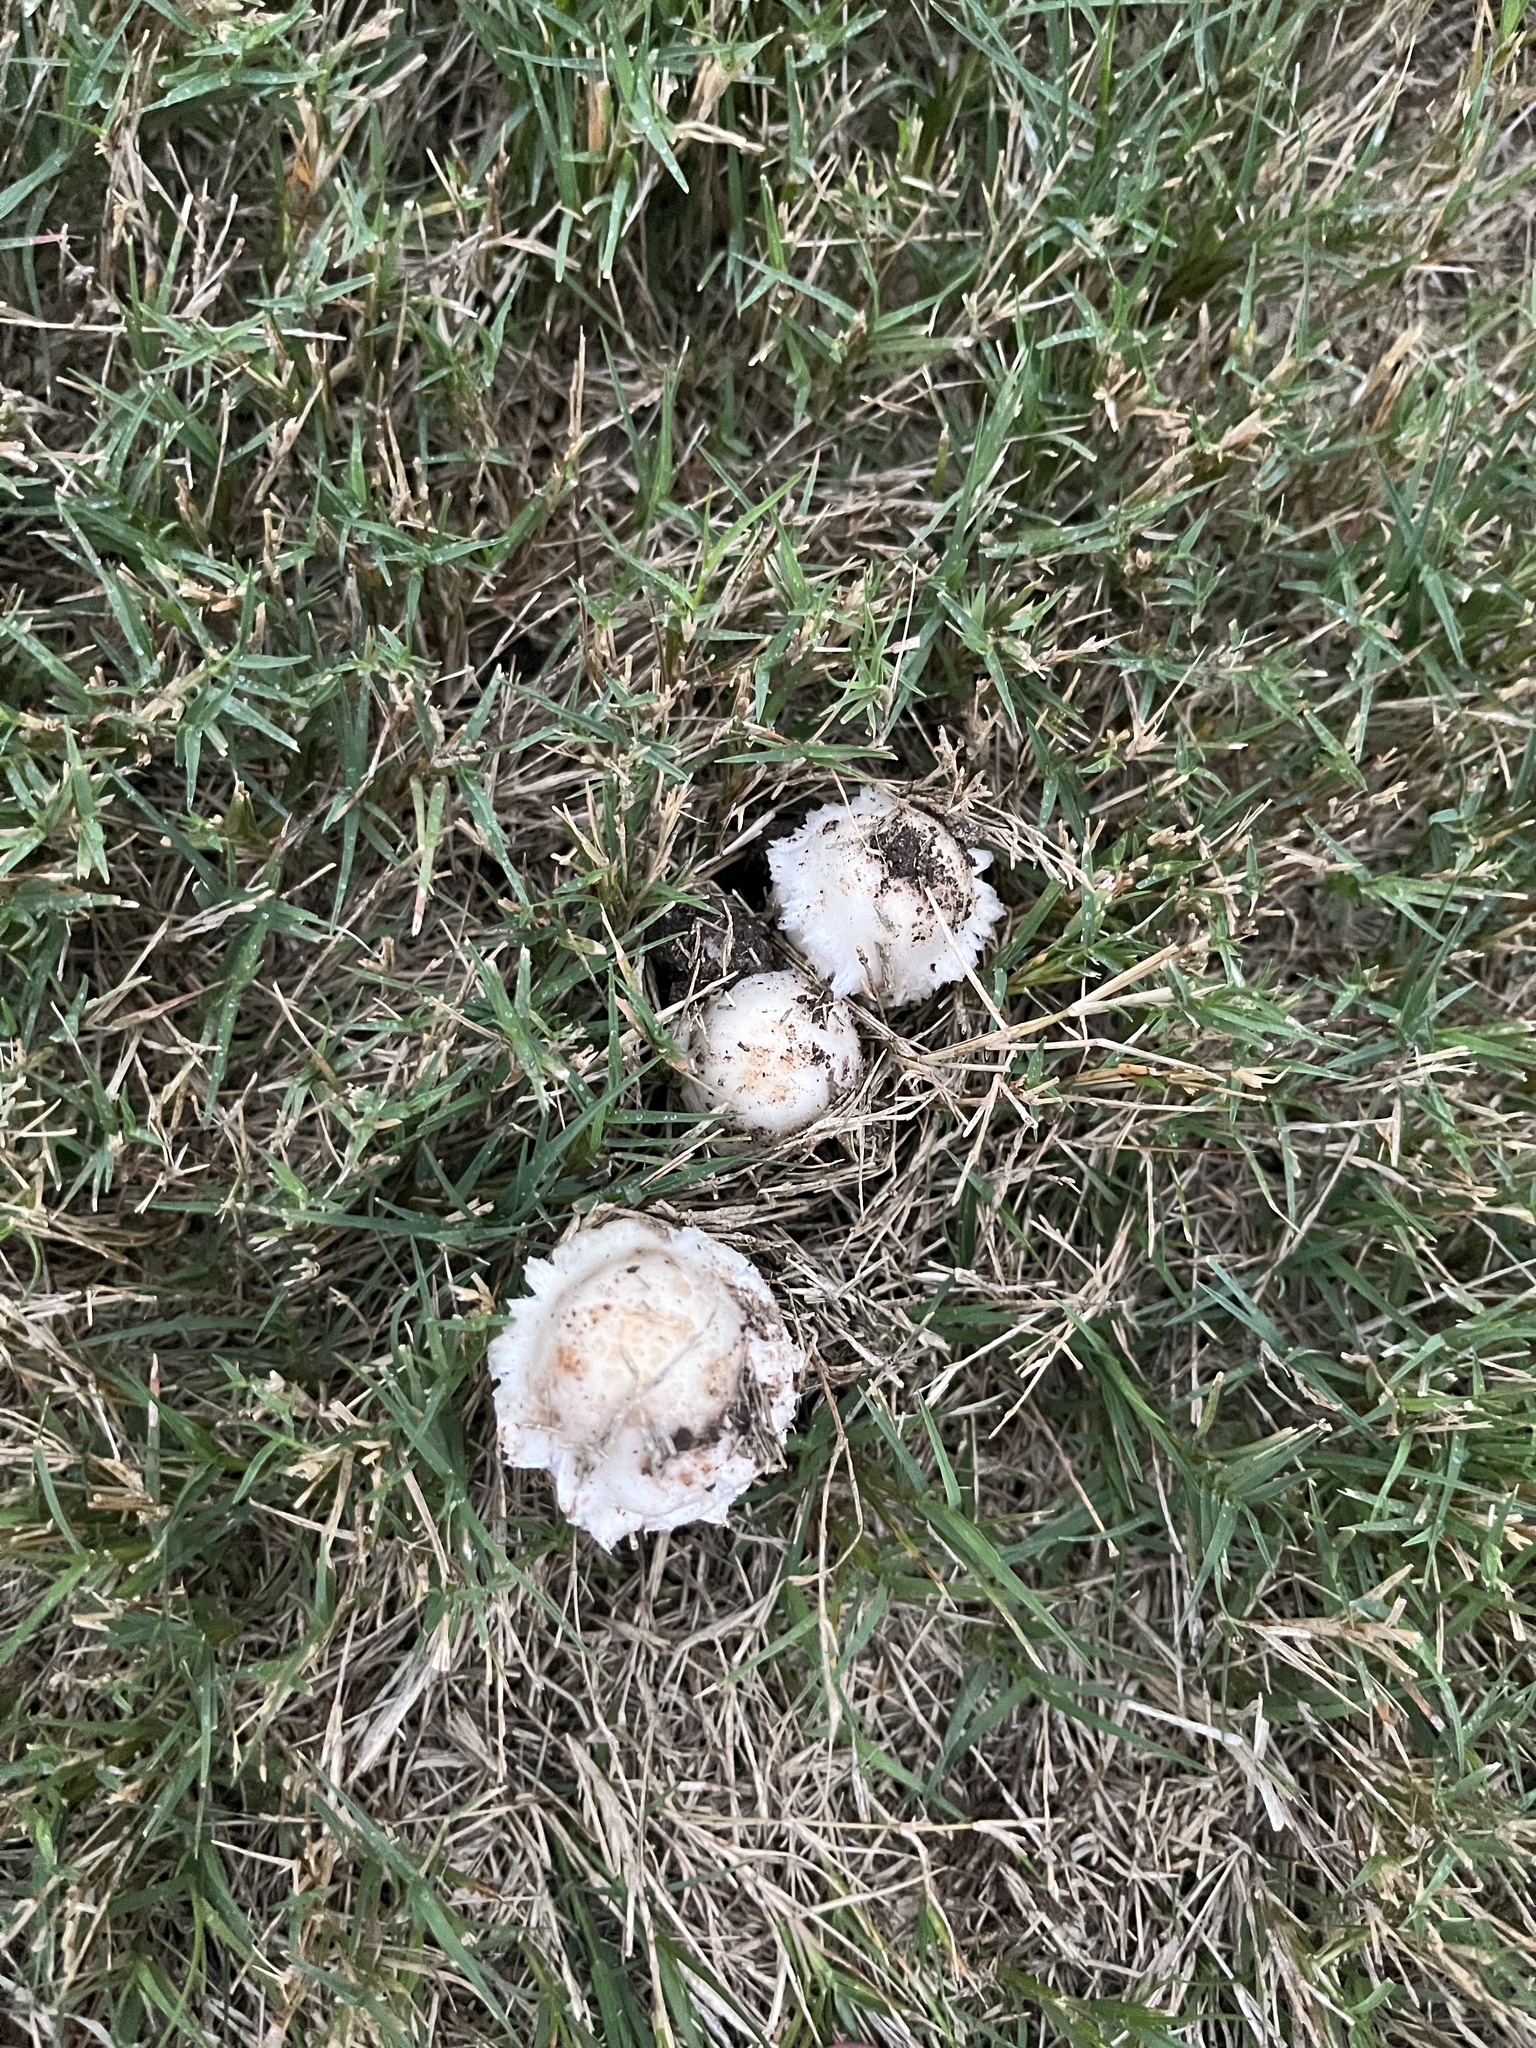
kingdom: Fungi
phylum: Basidiomycota
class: Agaricomycetes
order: Agaricales
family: Agaricaceae
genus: Coprinus
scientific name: Coprinus comatus
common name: Lawyer's wig
